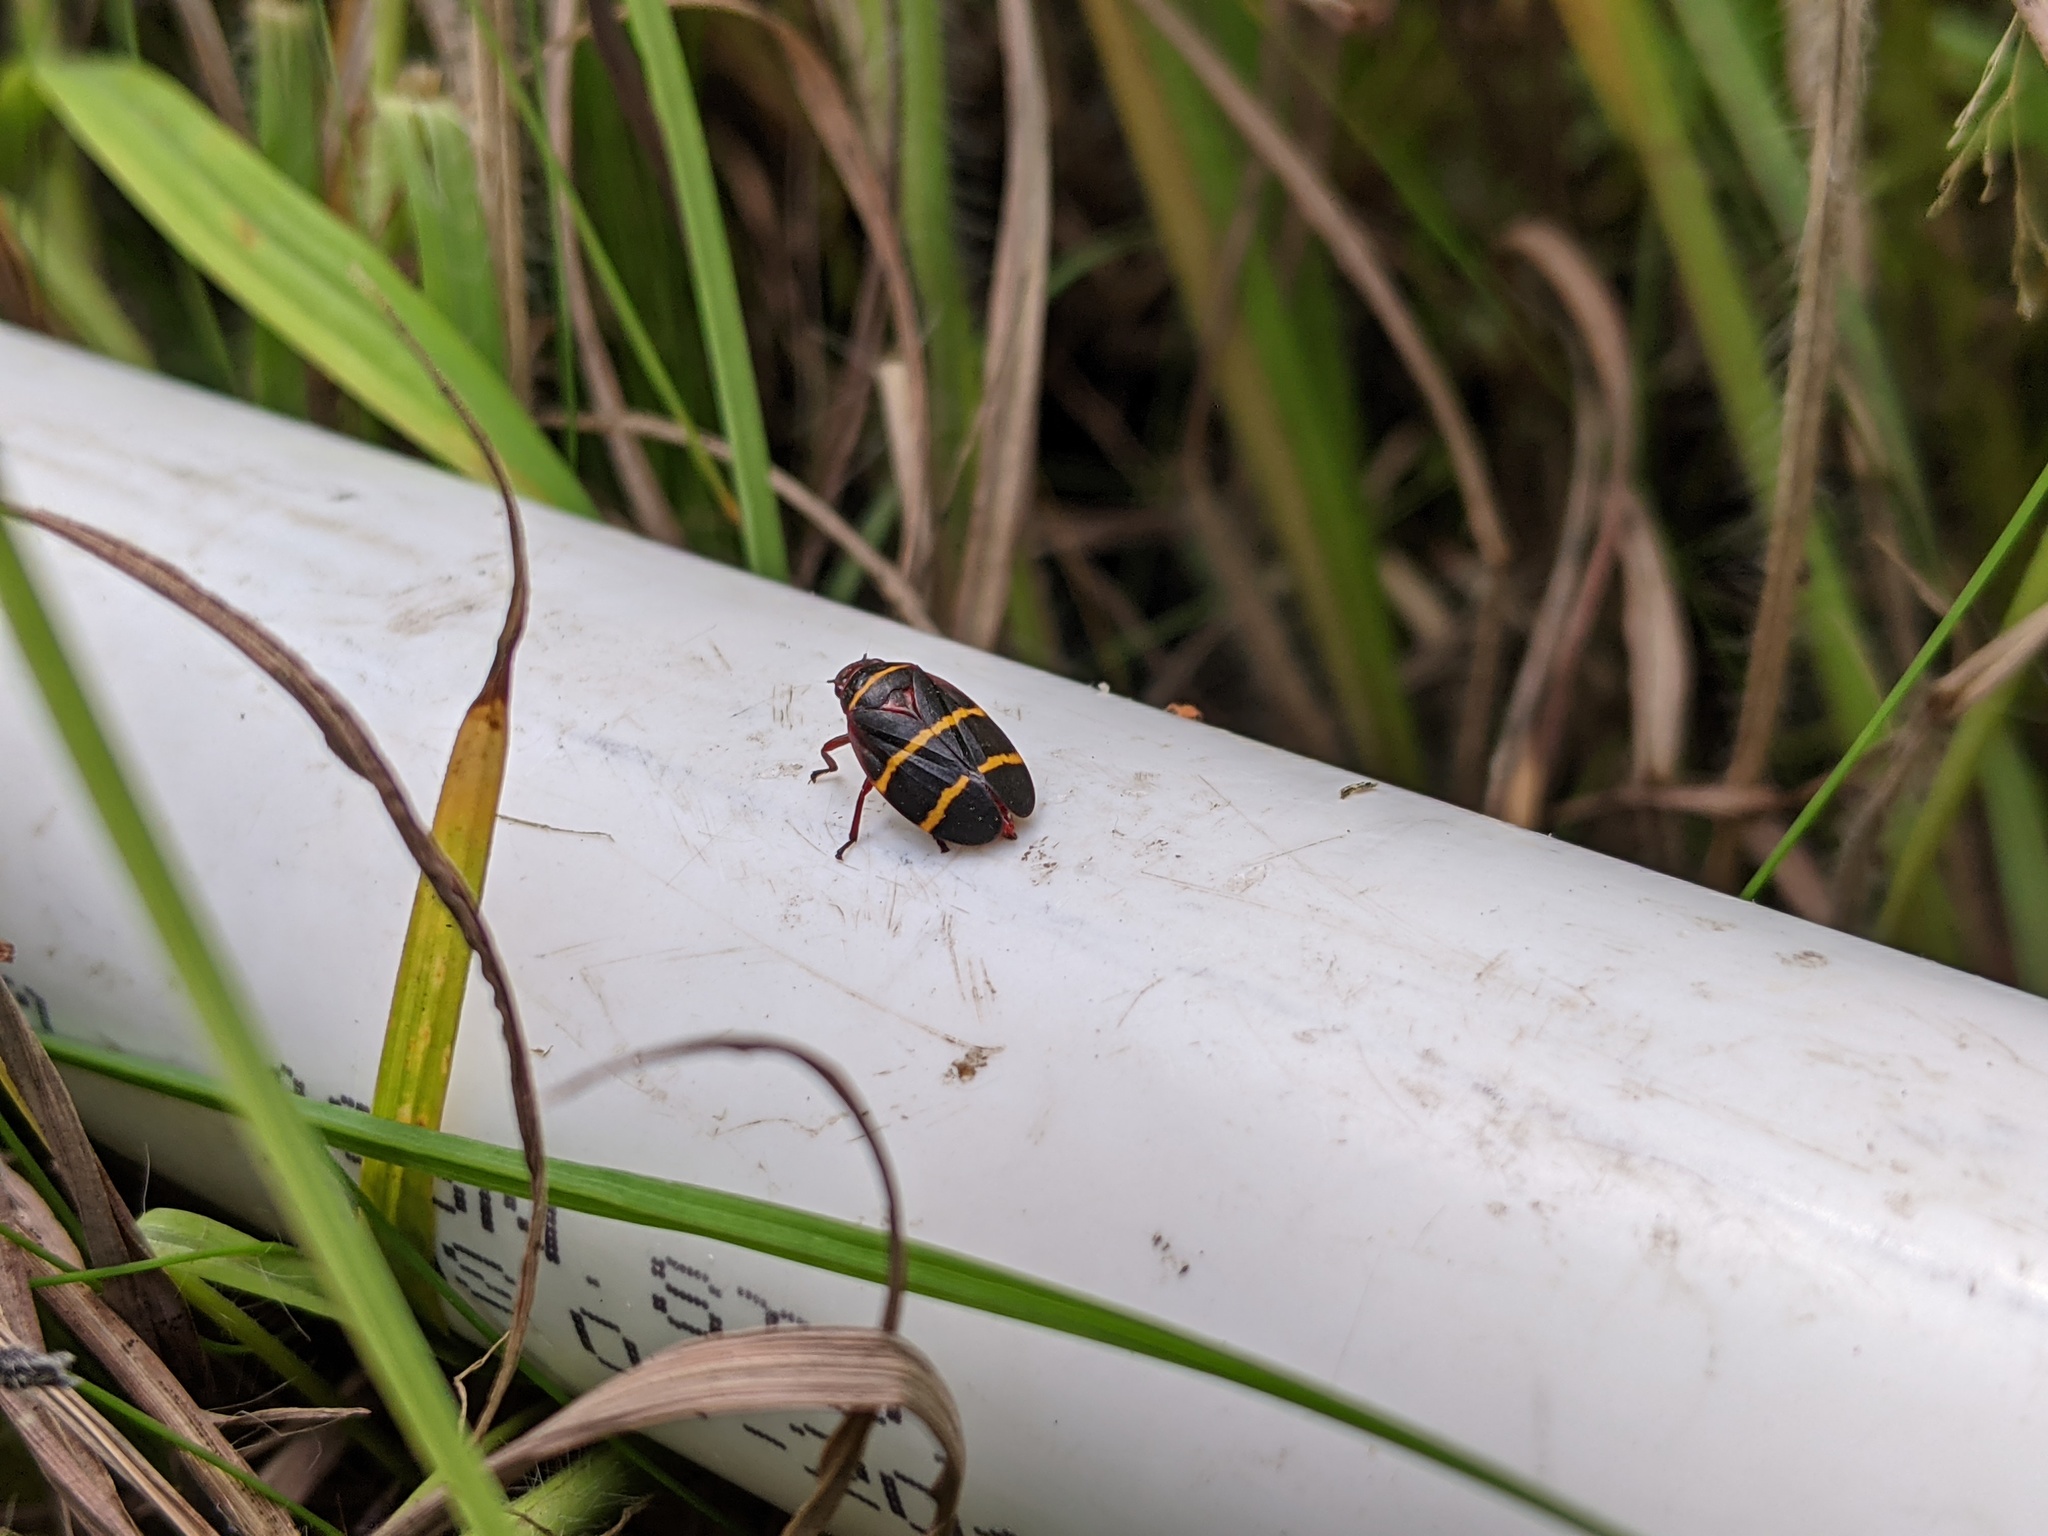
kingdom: Animalia
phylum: Arthropoda
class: Insecta
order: Hemiptera
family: Cercopidae
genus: Prosapia
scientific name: Prosapia bicincta
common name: Twolined spittlebug
